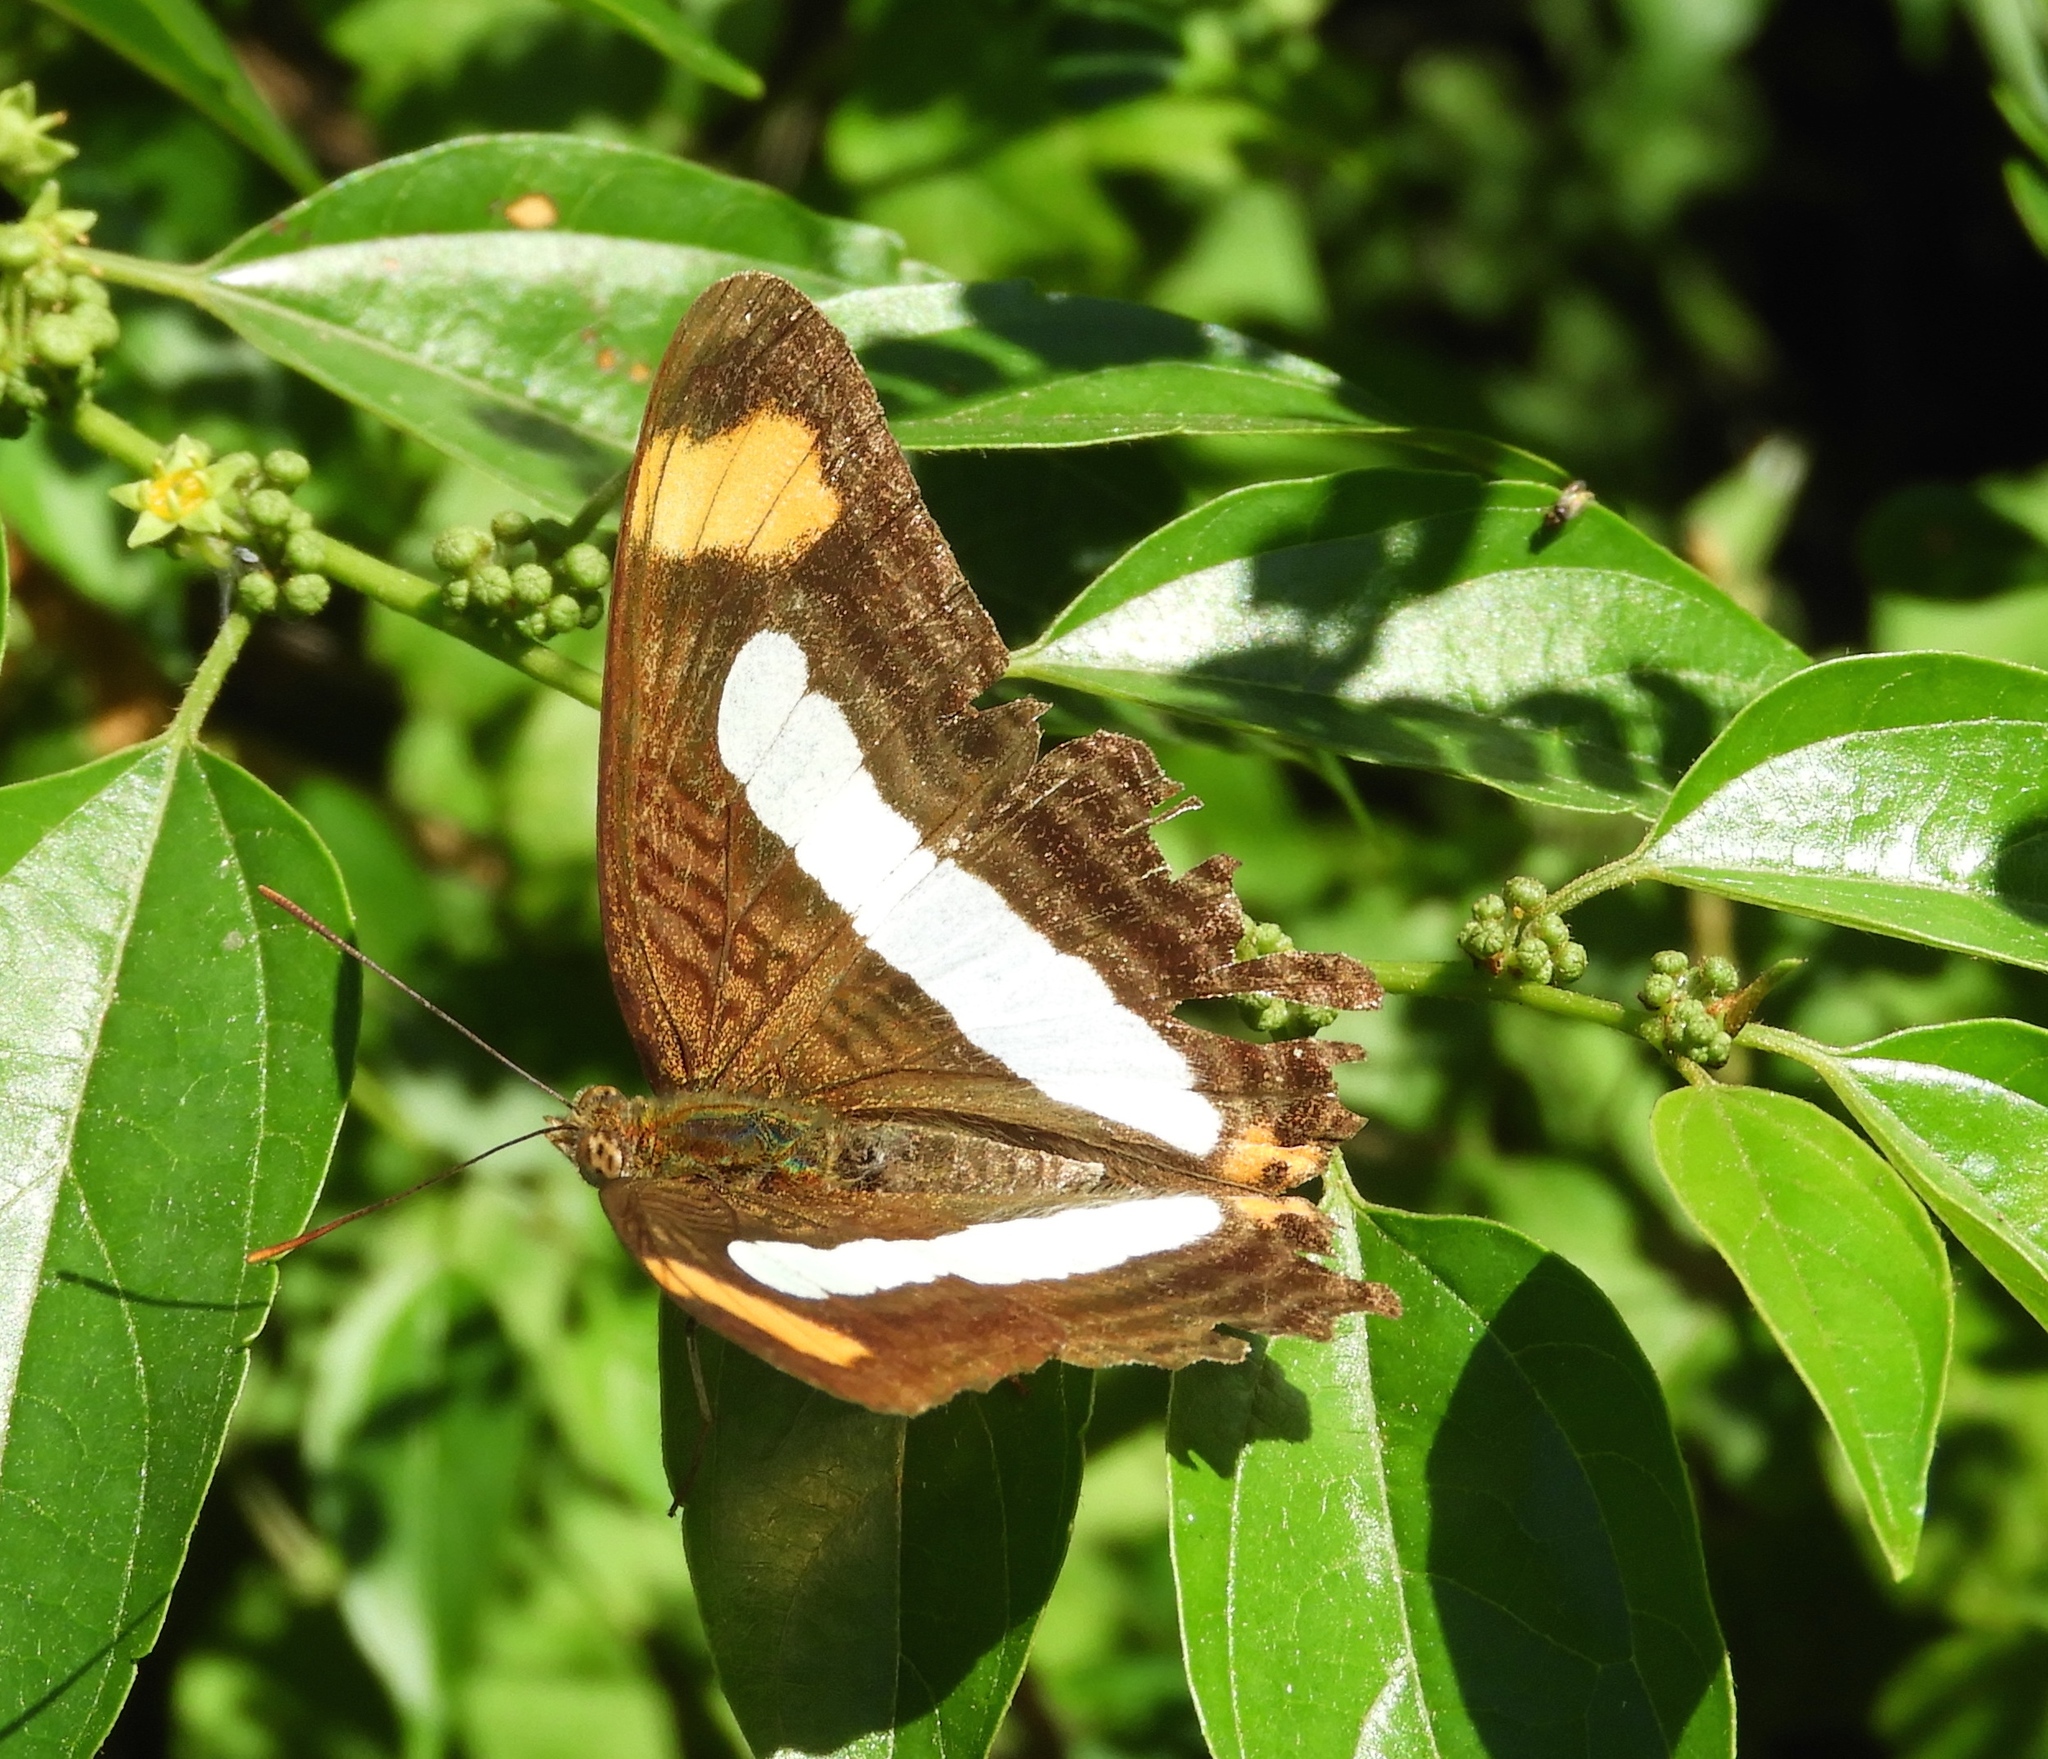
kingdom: Animalia
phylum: Arthropoda
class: Insecta
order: Lepidoptera
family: Nymphalidae
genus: Limenitis
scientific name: Limenitis iphiclus
